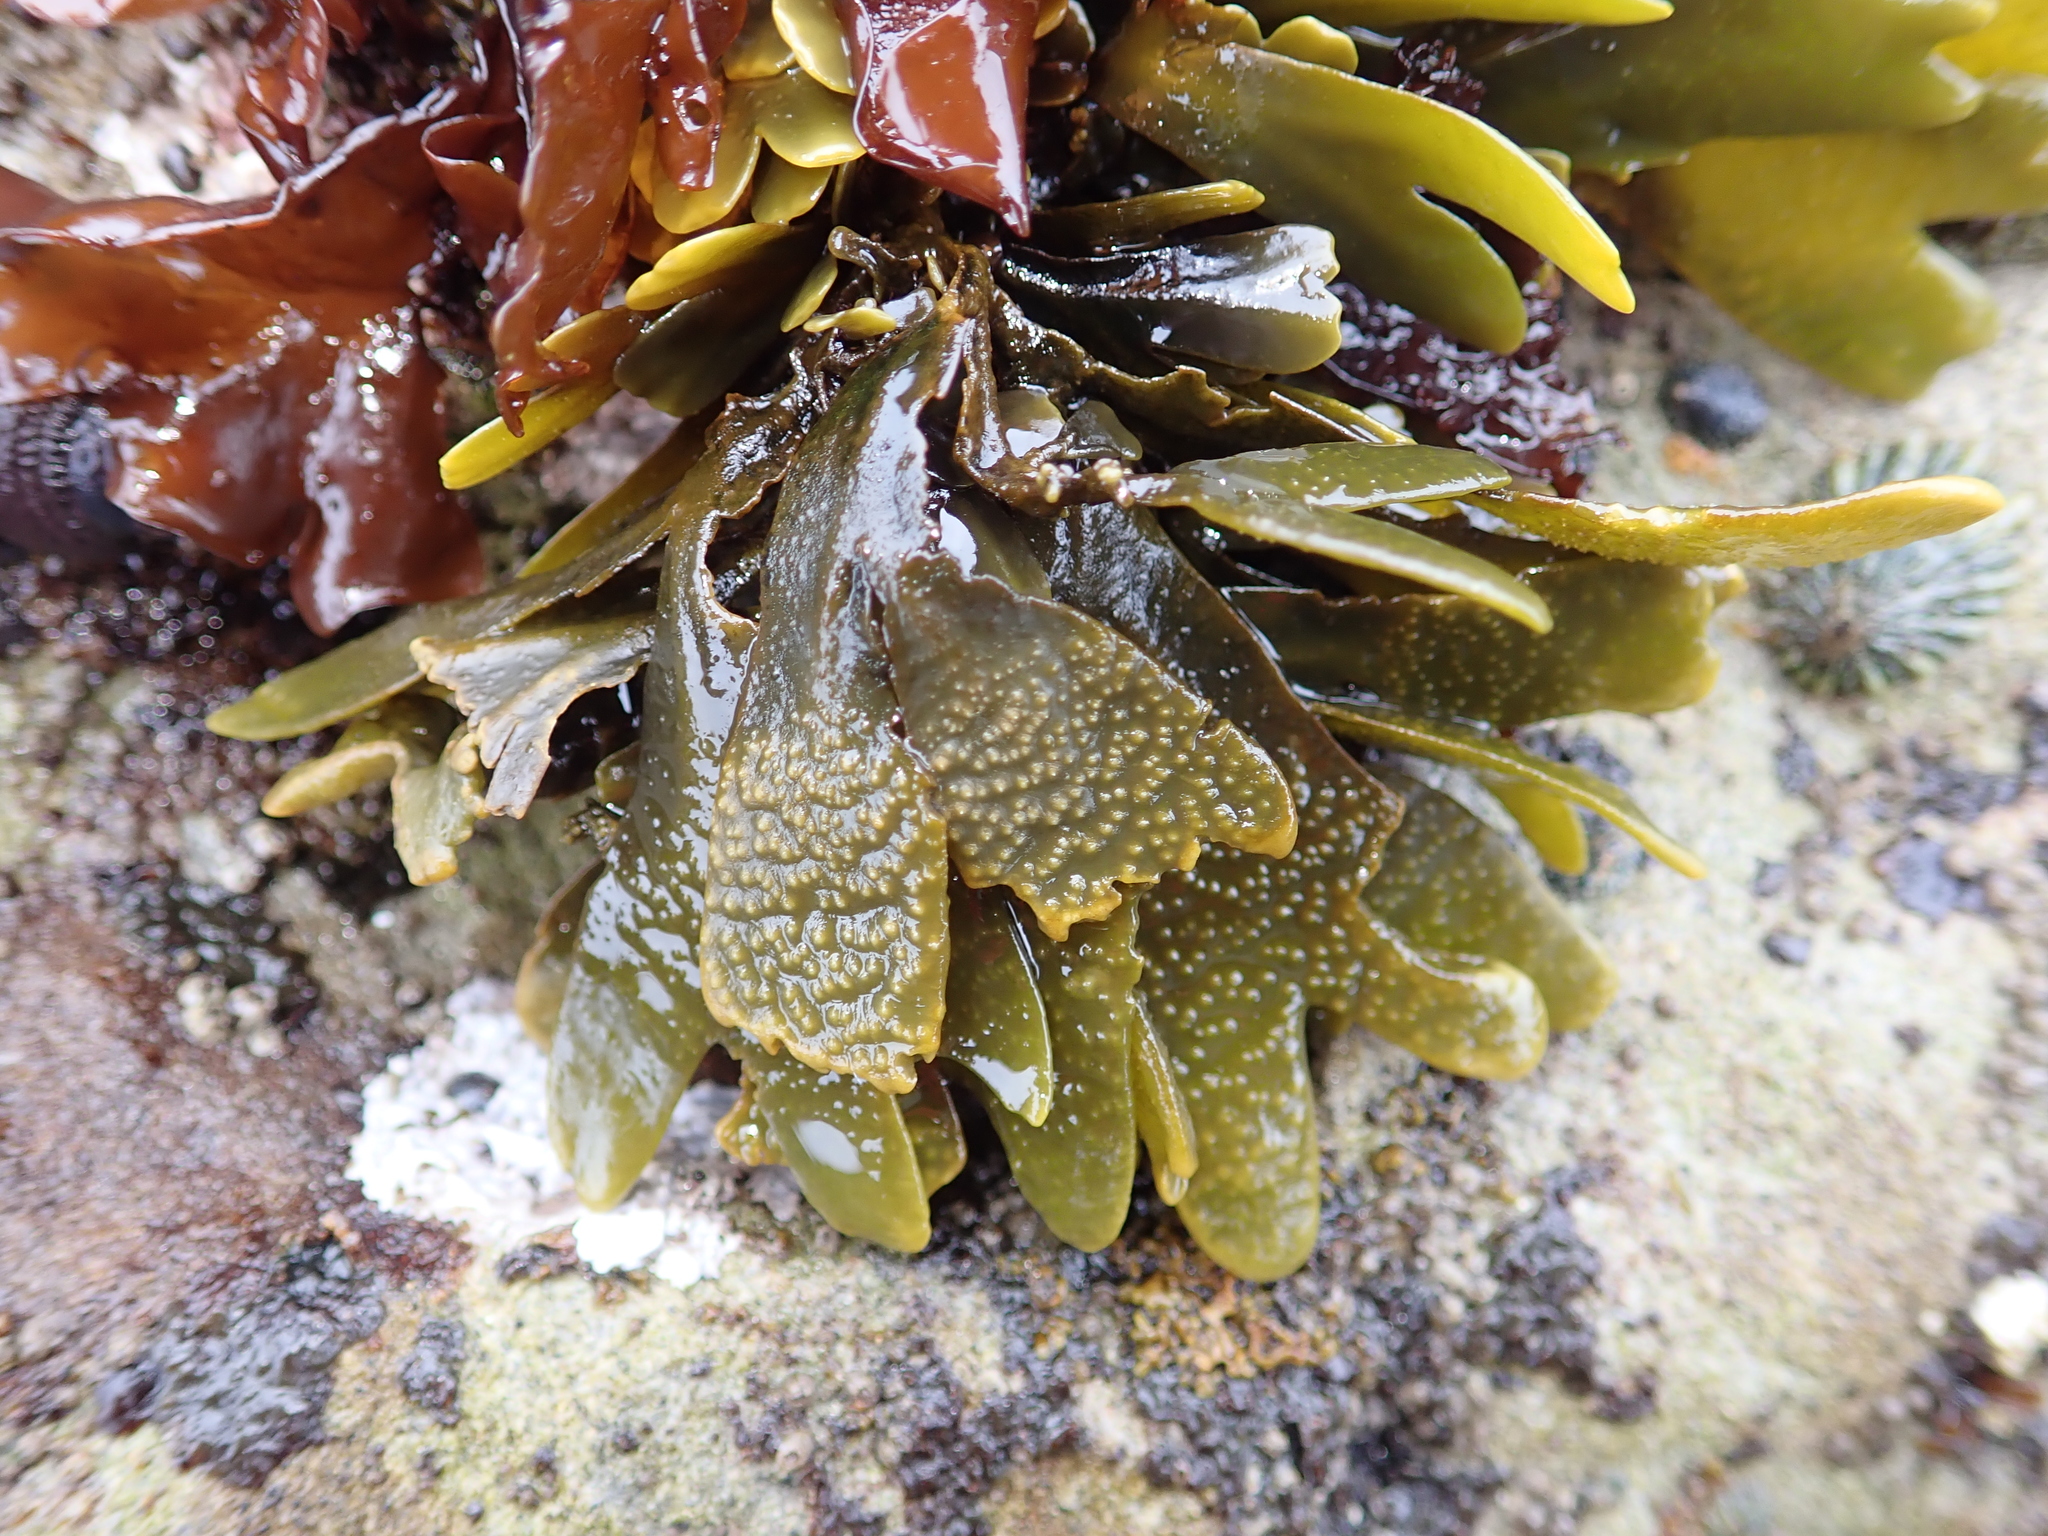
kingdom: Chromista
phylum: Ochrophyta
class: Phaeophyceae
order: Fucales
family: Fucaceae
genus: Fucus
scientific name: Fucus distichus
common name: Rockweed
